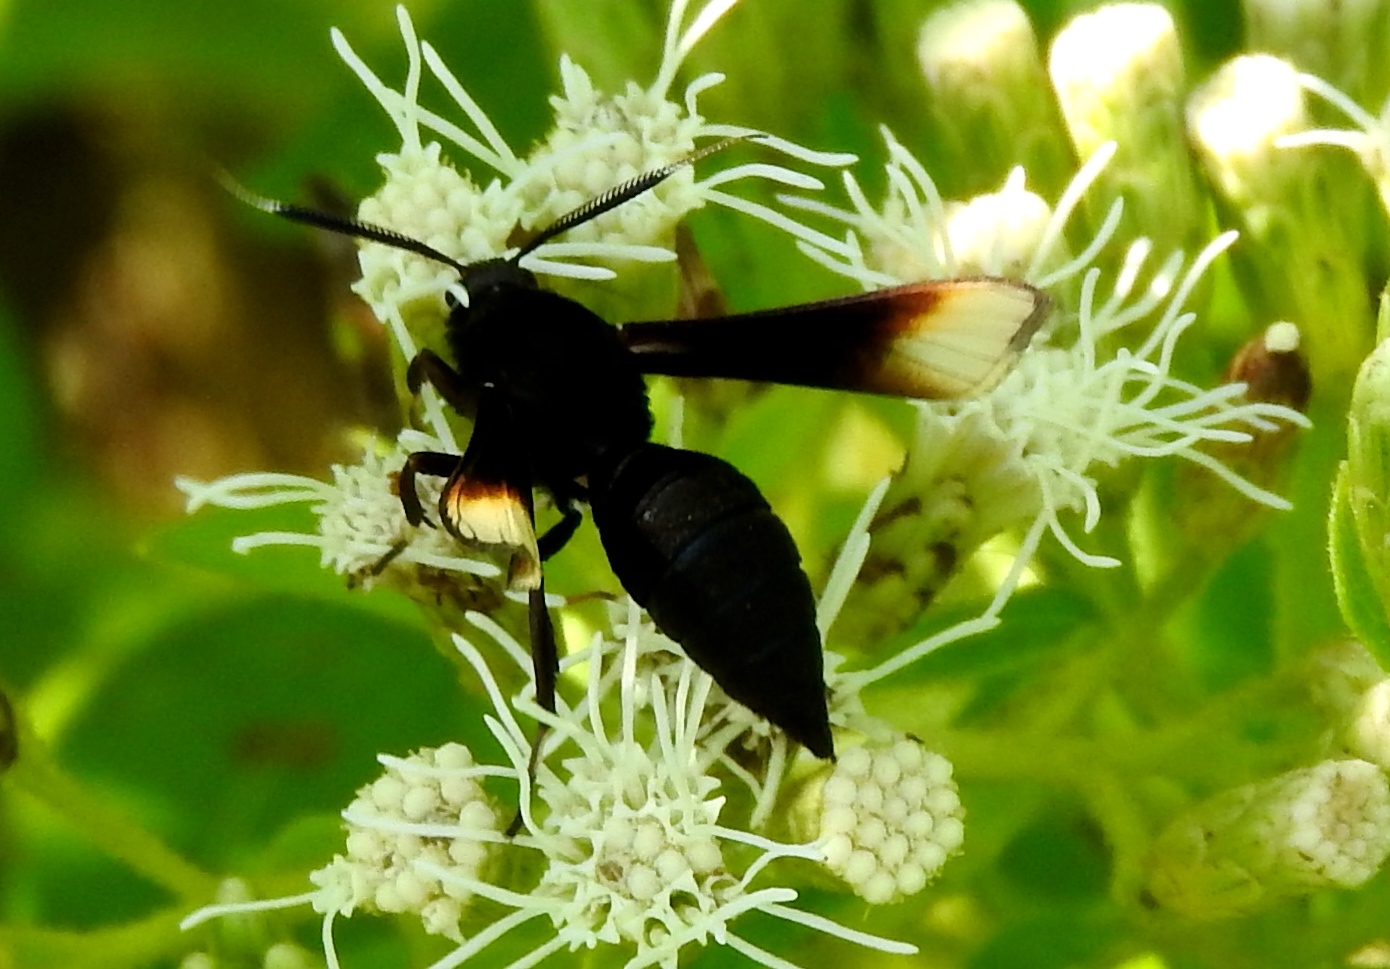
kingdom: Animalia
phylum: Arthropoda
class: Insecta
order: Lepidoptera
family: Erebidae
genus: Pseudosphex
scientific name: Pseudosphex strigosa
